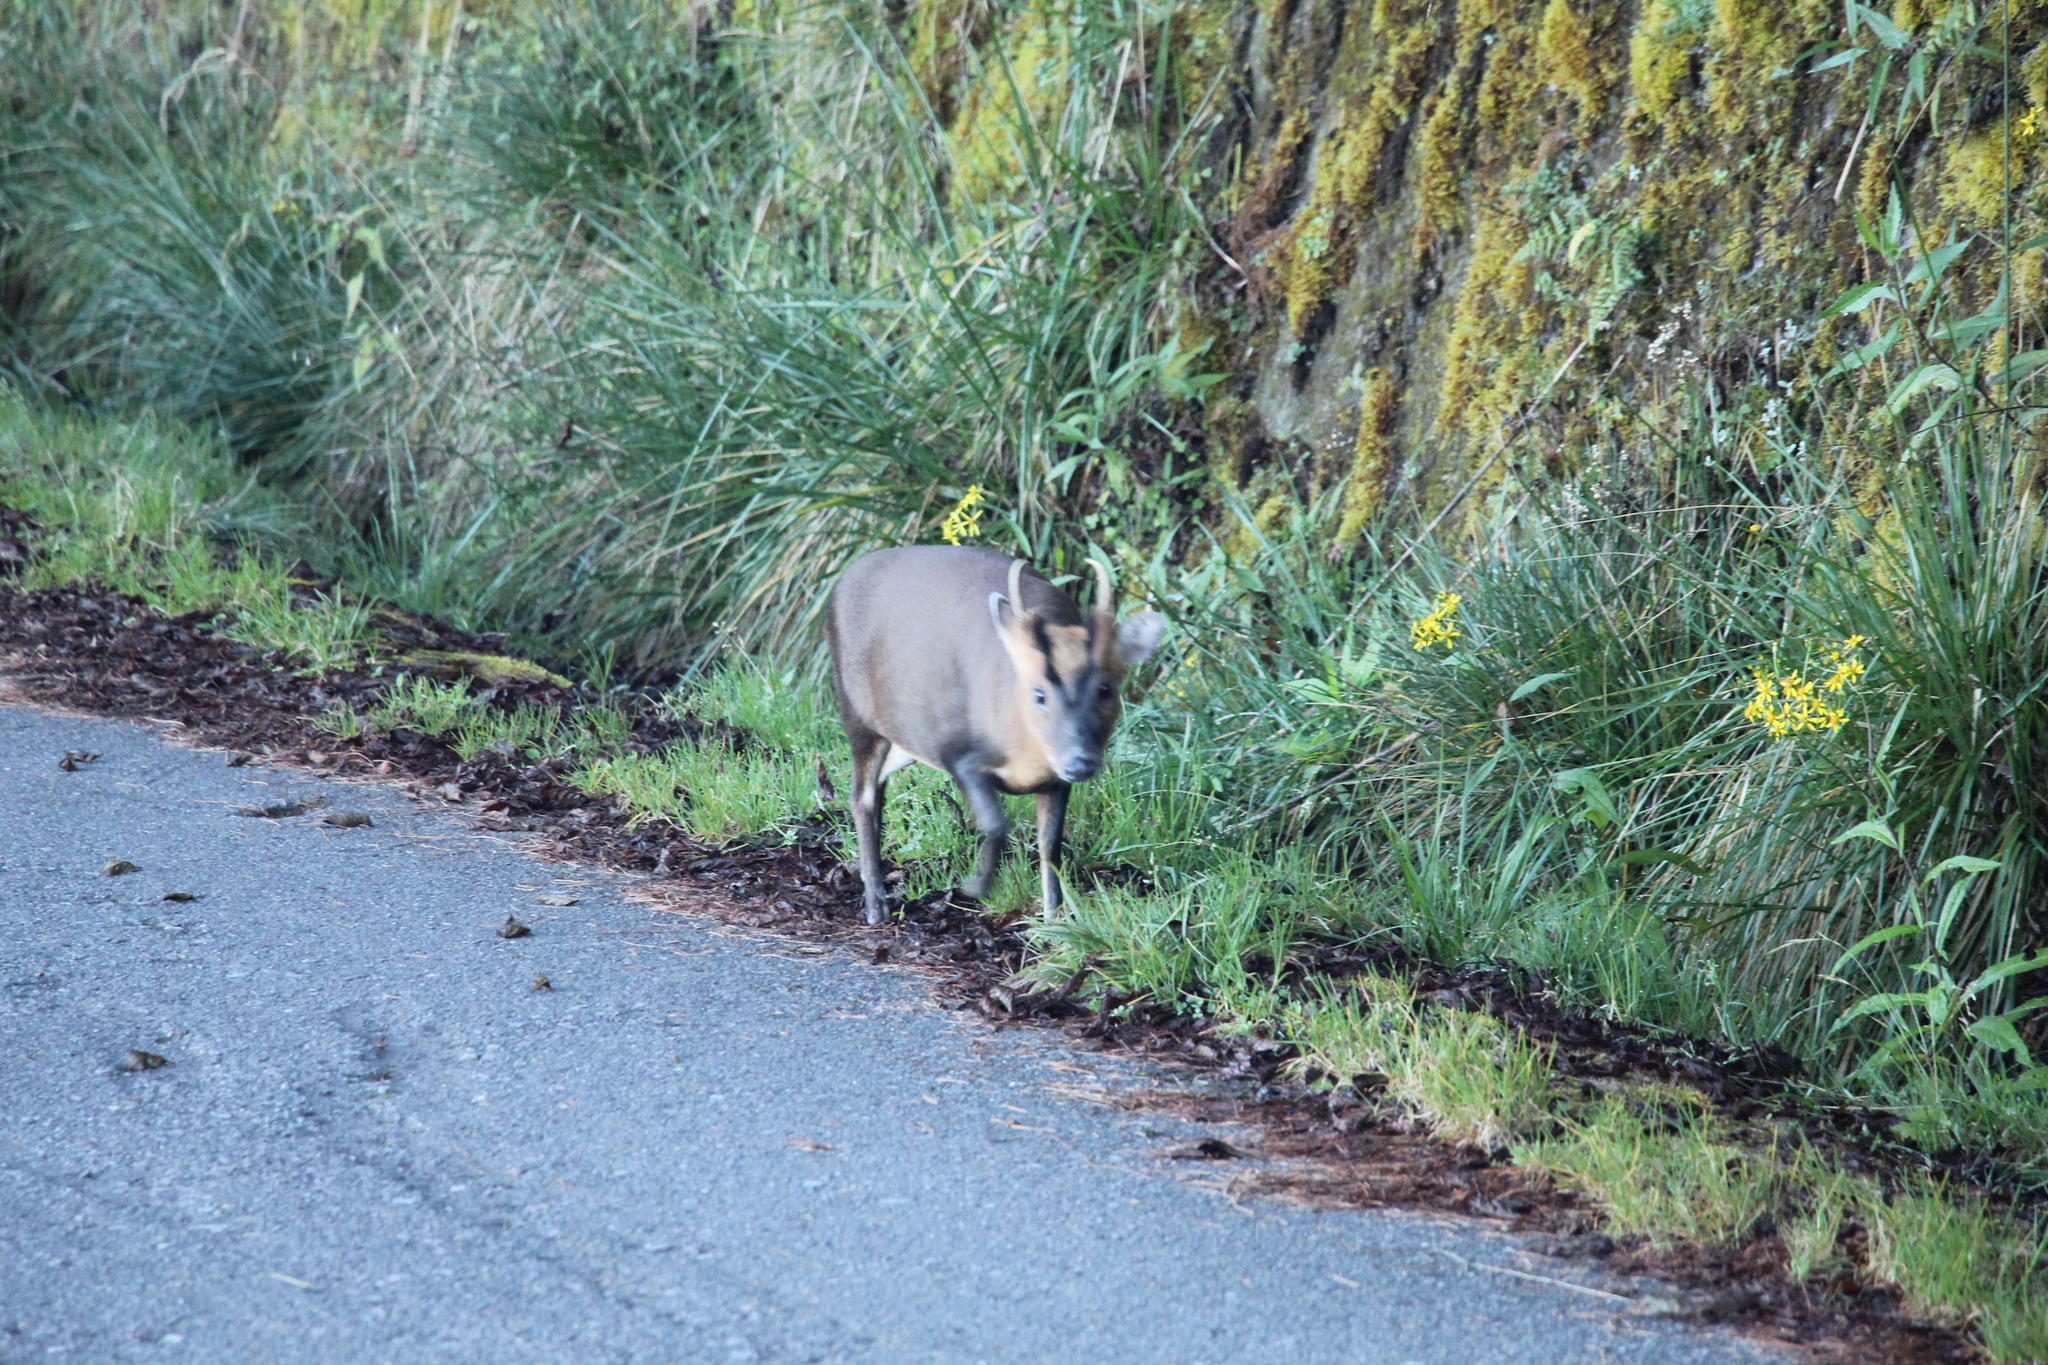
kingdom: Animalia
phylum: Chordata
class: Mammalia
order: Artiodactyla
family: Cervidae
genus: Muntiacus
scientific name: Muntiacus reevesi
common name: Reeves' muntjac
